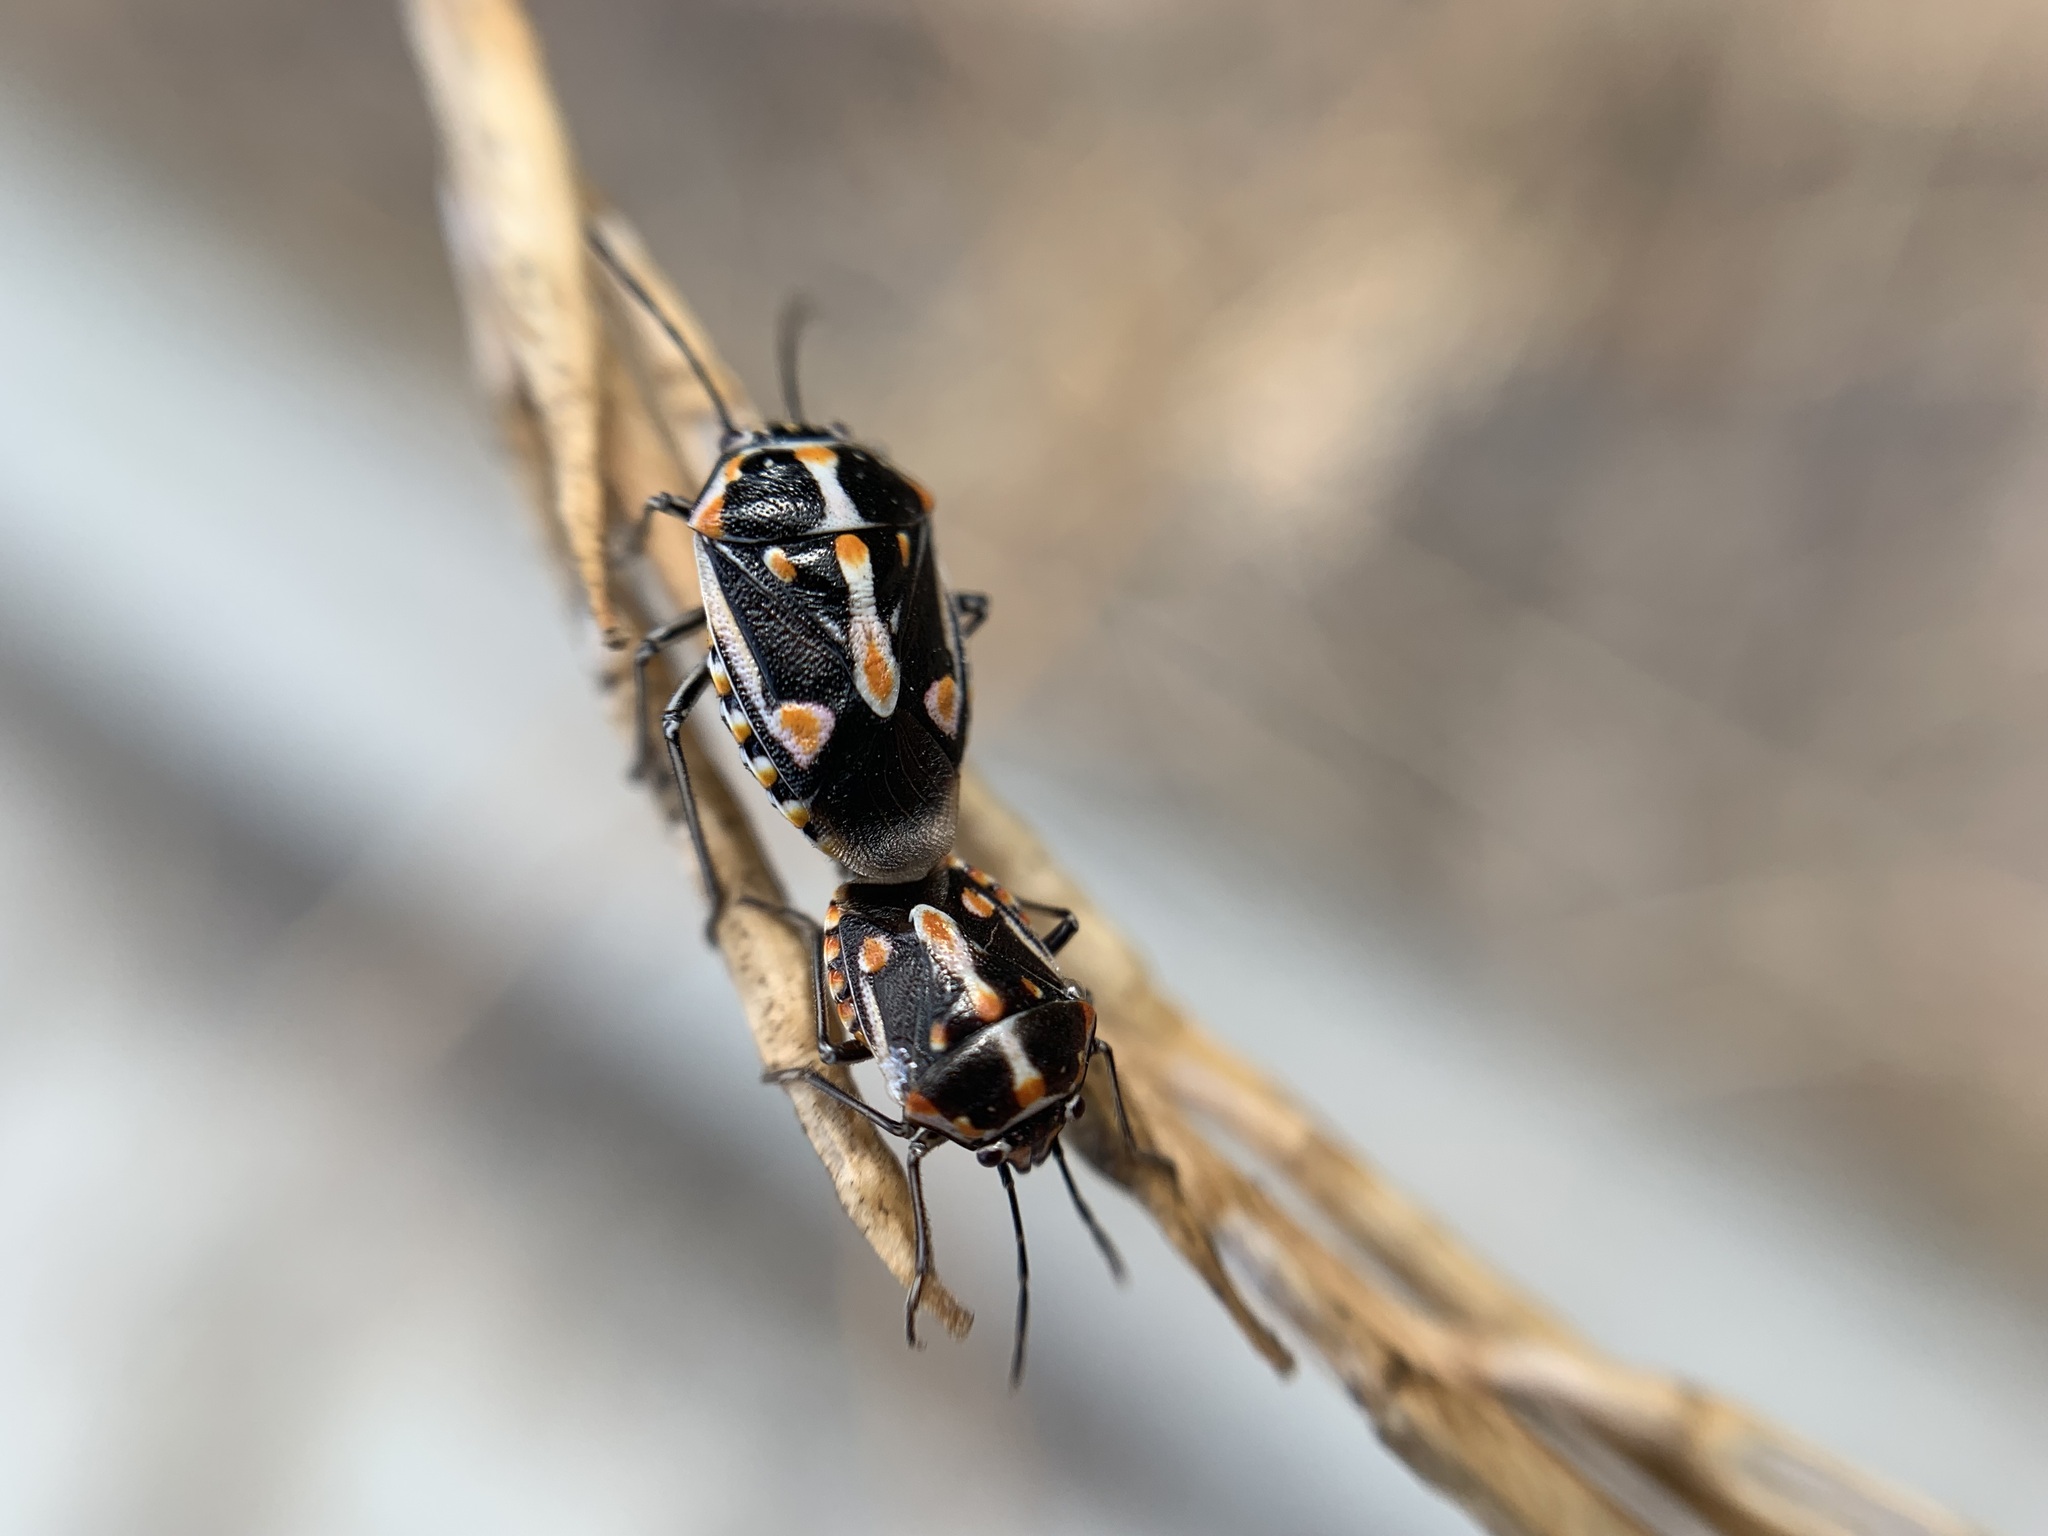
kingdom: Animalia
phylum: Arthropoda
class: Insecta
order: Hemiptera
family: Pentatomidae
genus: Bagrada
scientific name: Bagrada hilaris
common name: Bagrada bug
